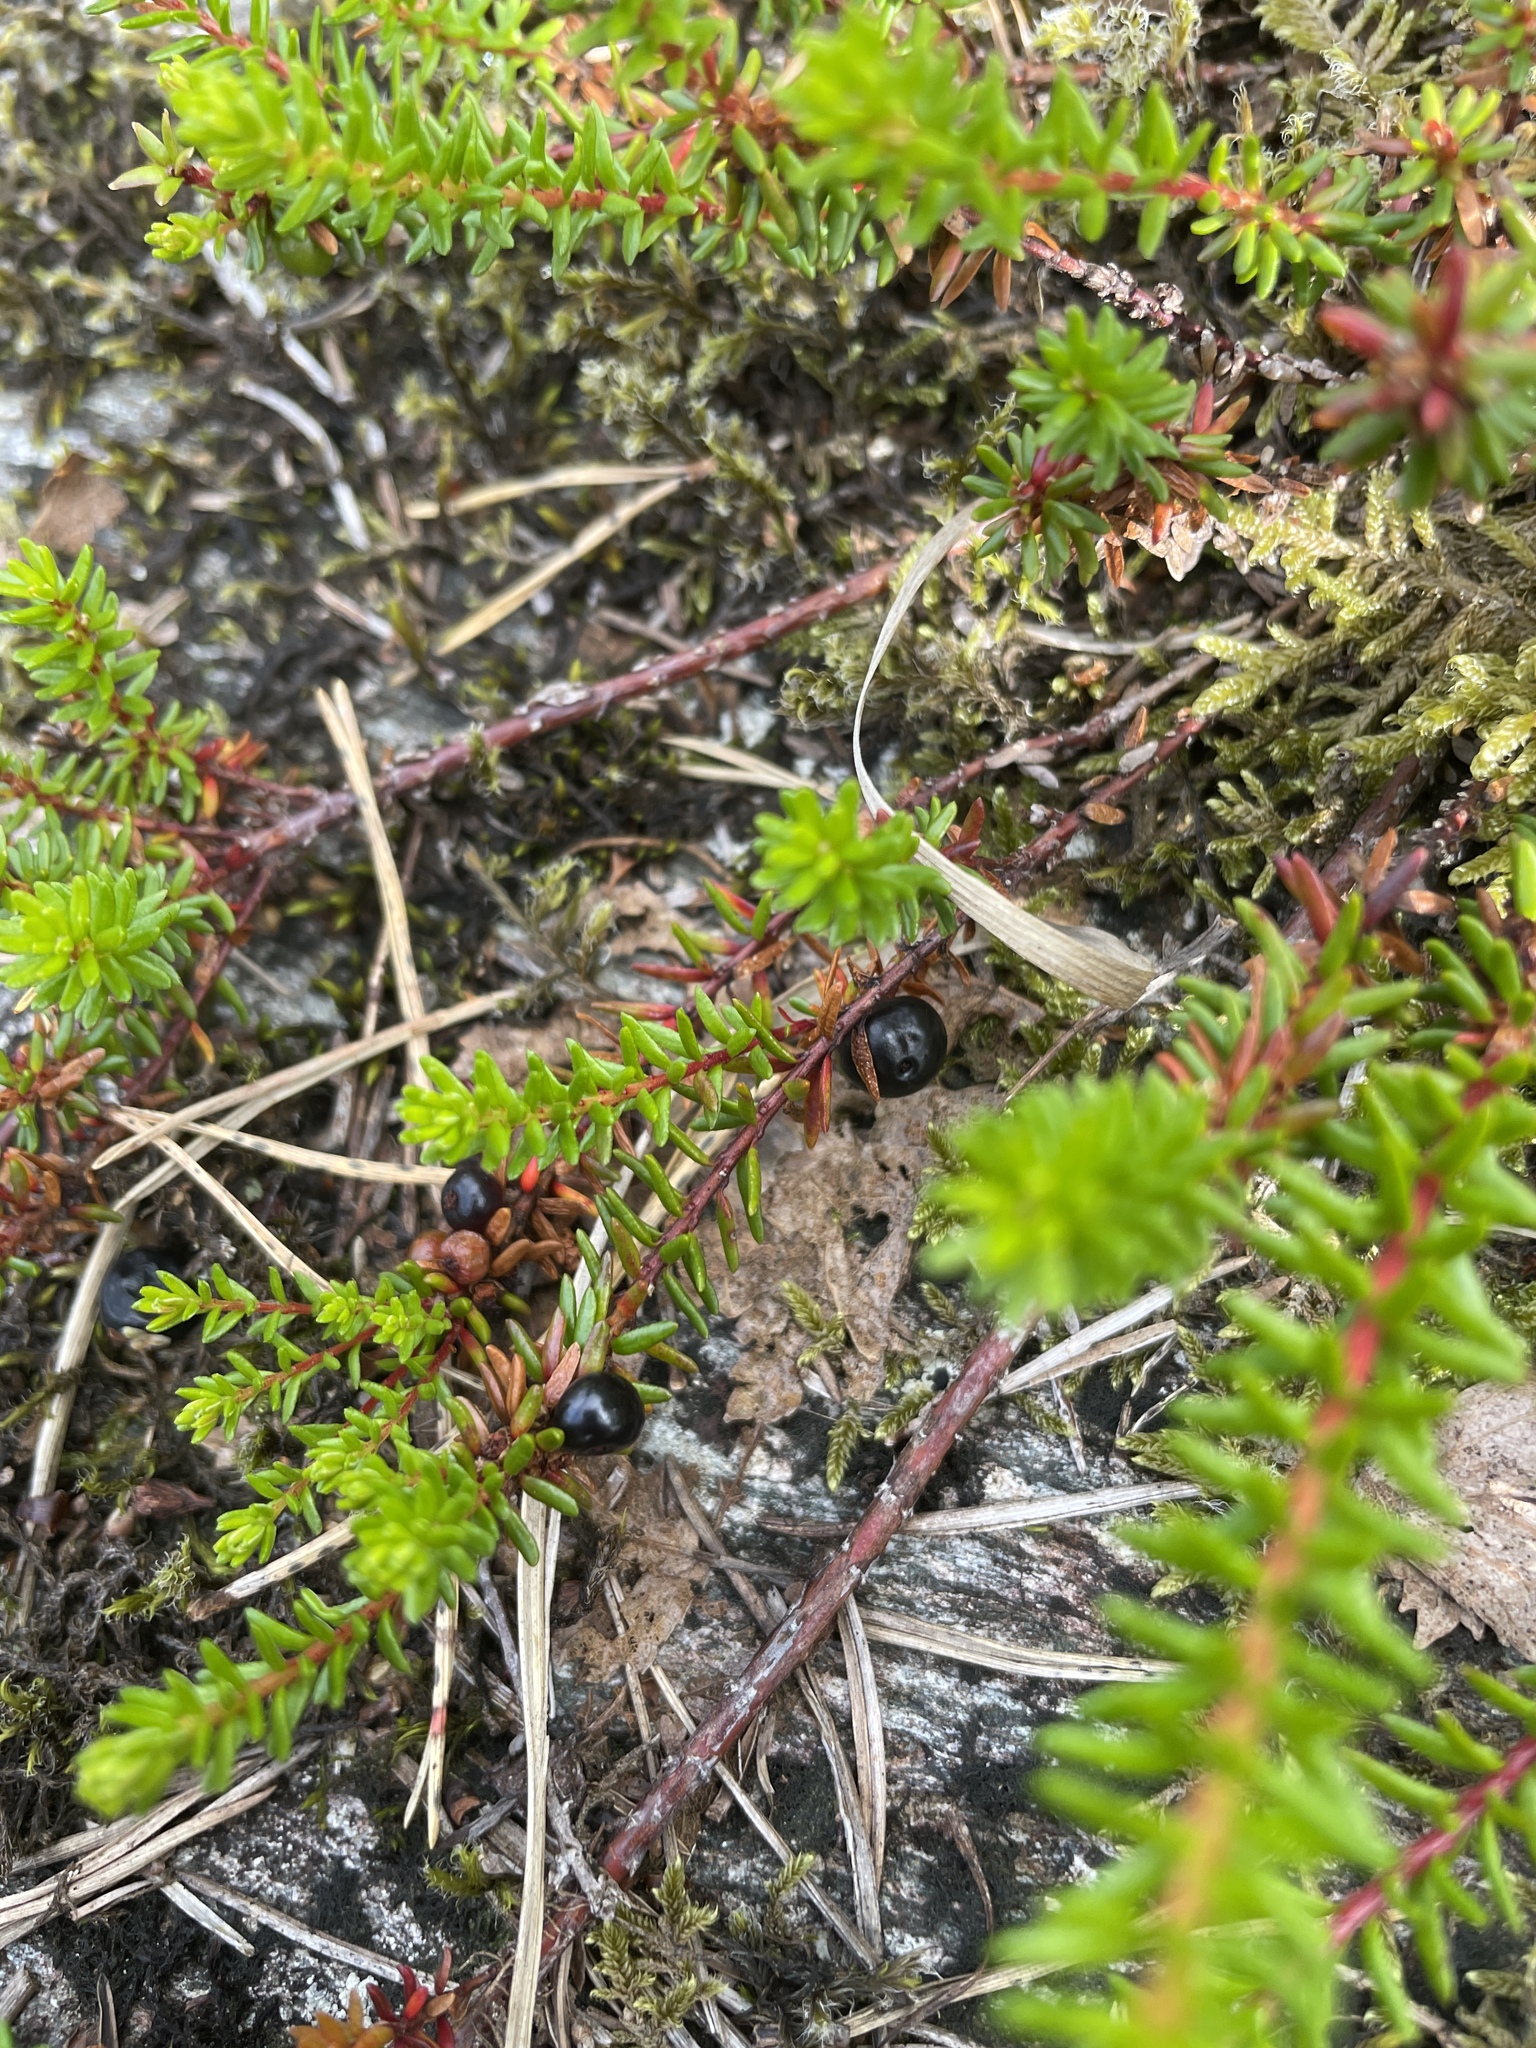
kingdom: Plantae
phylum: Tracheophyta
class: Magnoliopsida
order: Ericales
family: Ericaceae
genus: Empetrum
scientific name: Empetrum nigrum
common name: Black crowberry
